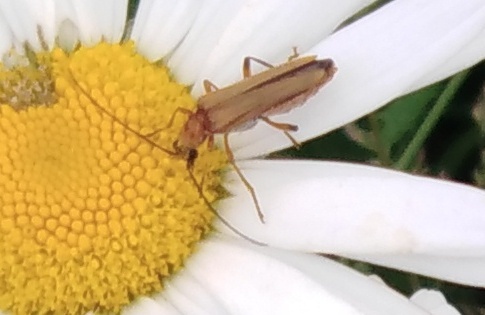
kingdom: Animalia
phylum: Arthropoda
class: Insecta
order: Coleoptera
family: Oedemeridae
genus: Oedemera
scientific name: Oedemera podagrariae
